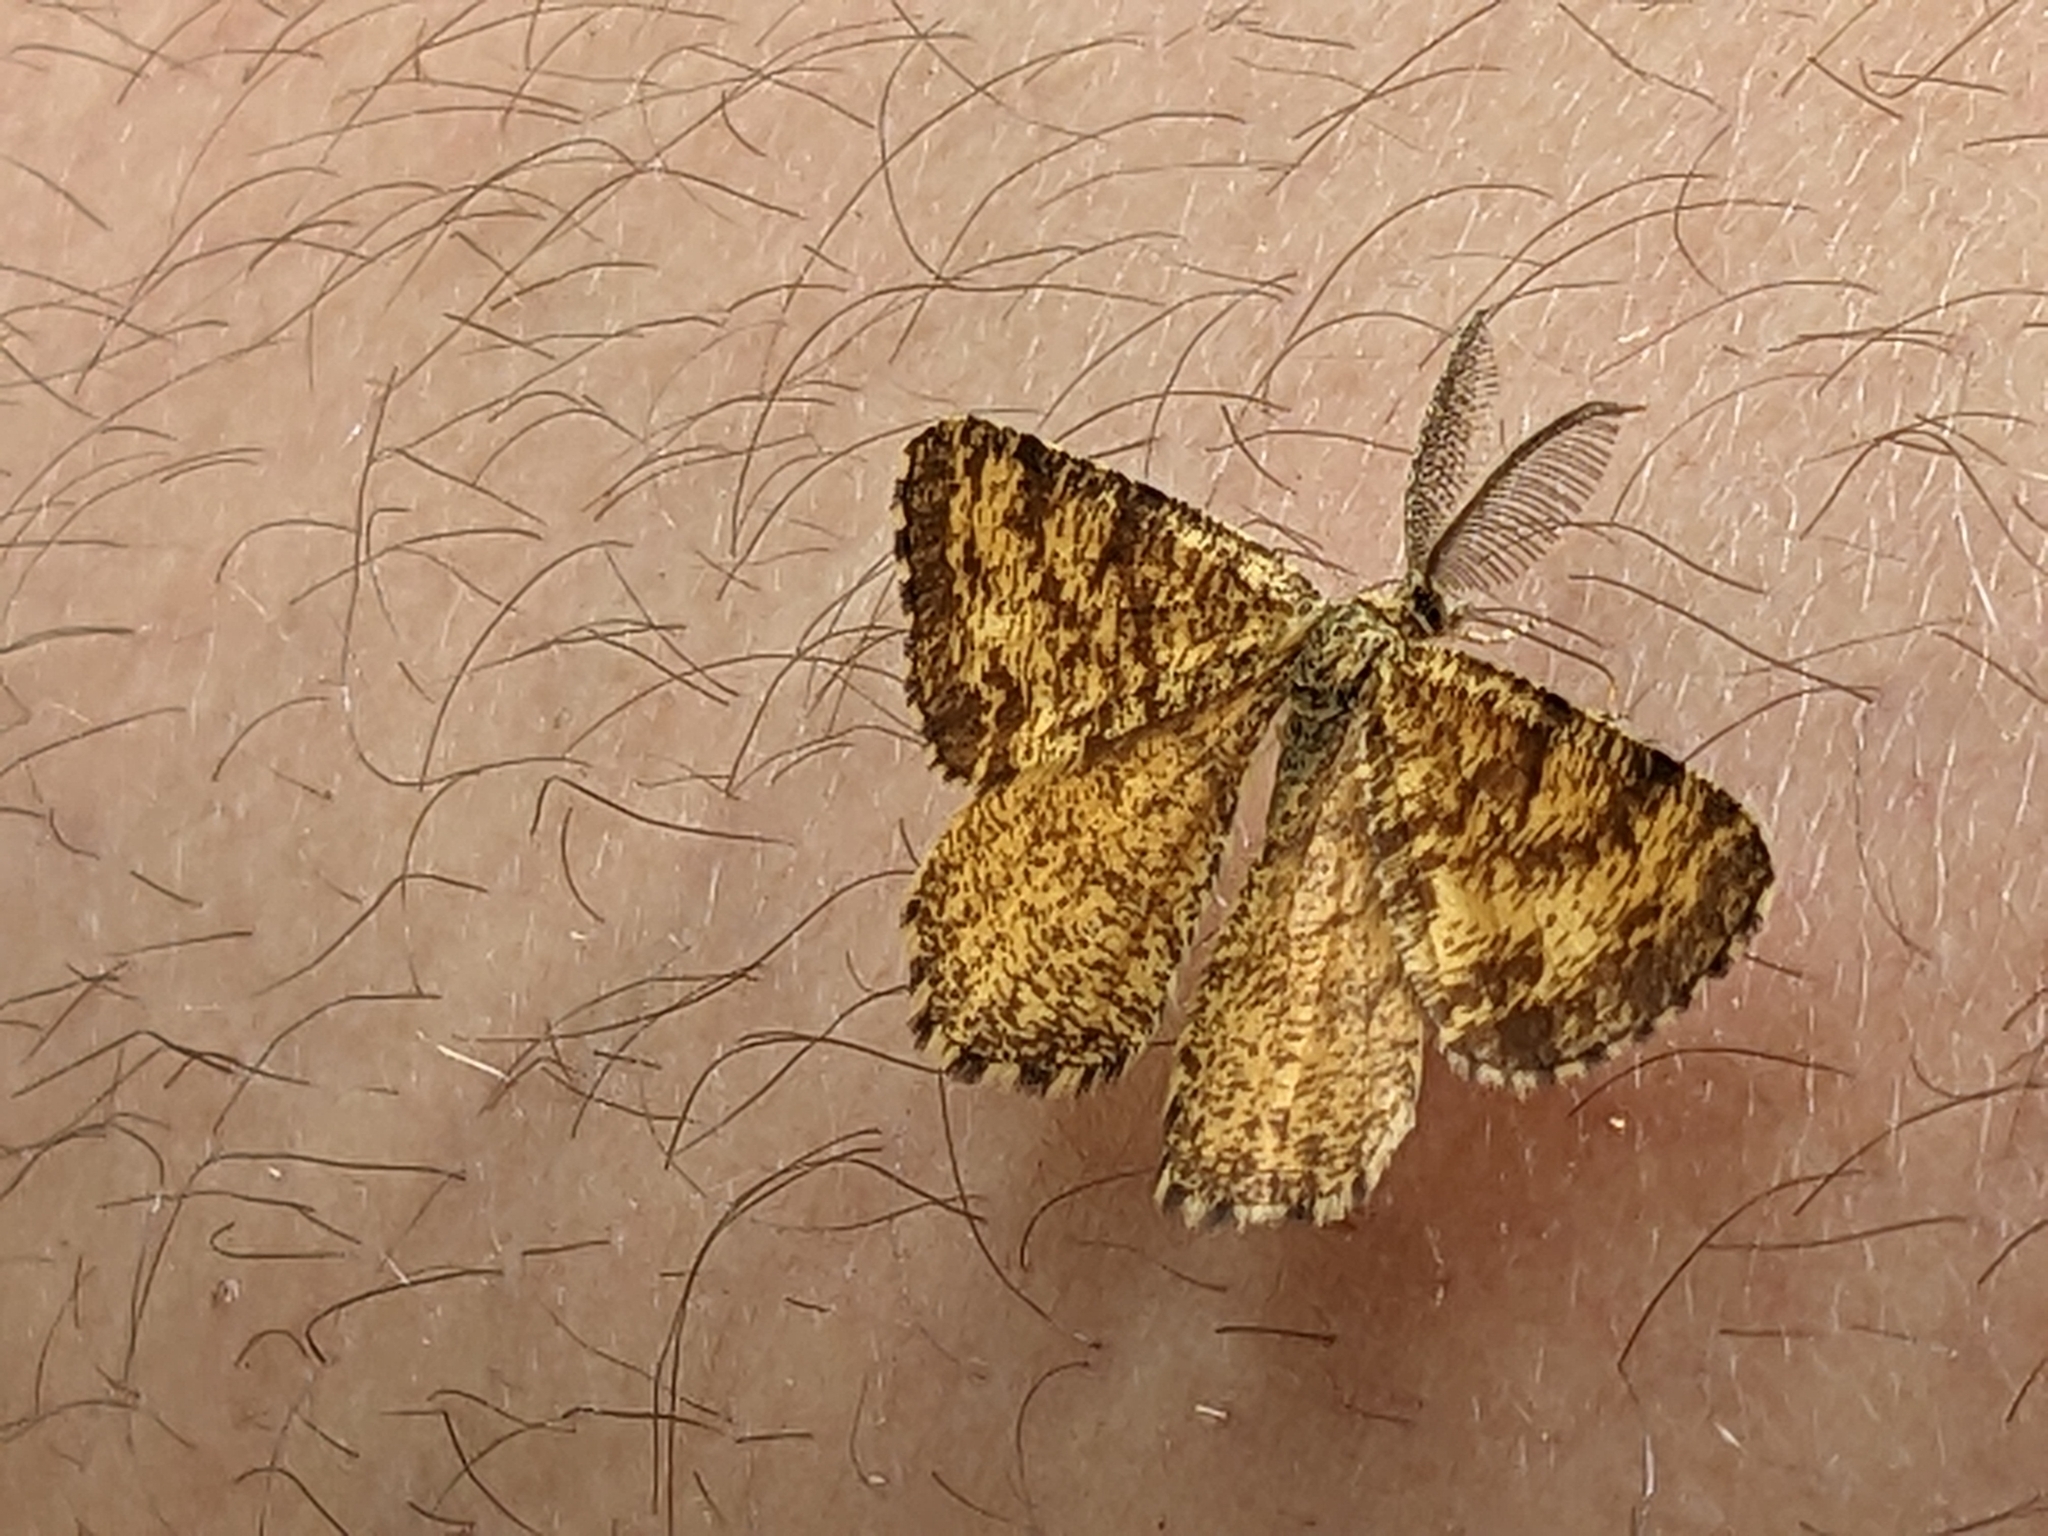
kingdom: Animalia
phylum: Arthropoda
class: Insecta
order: Lepidoptera
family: Geometridae
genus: Ematurga
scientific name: Ematurga atomaria
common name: Common heath
